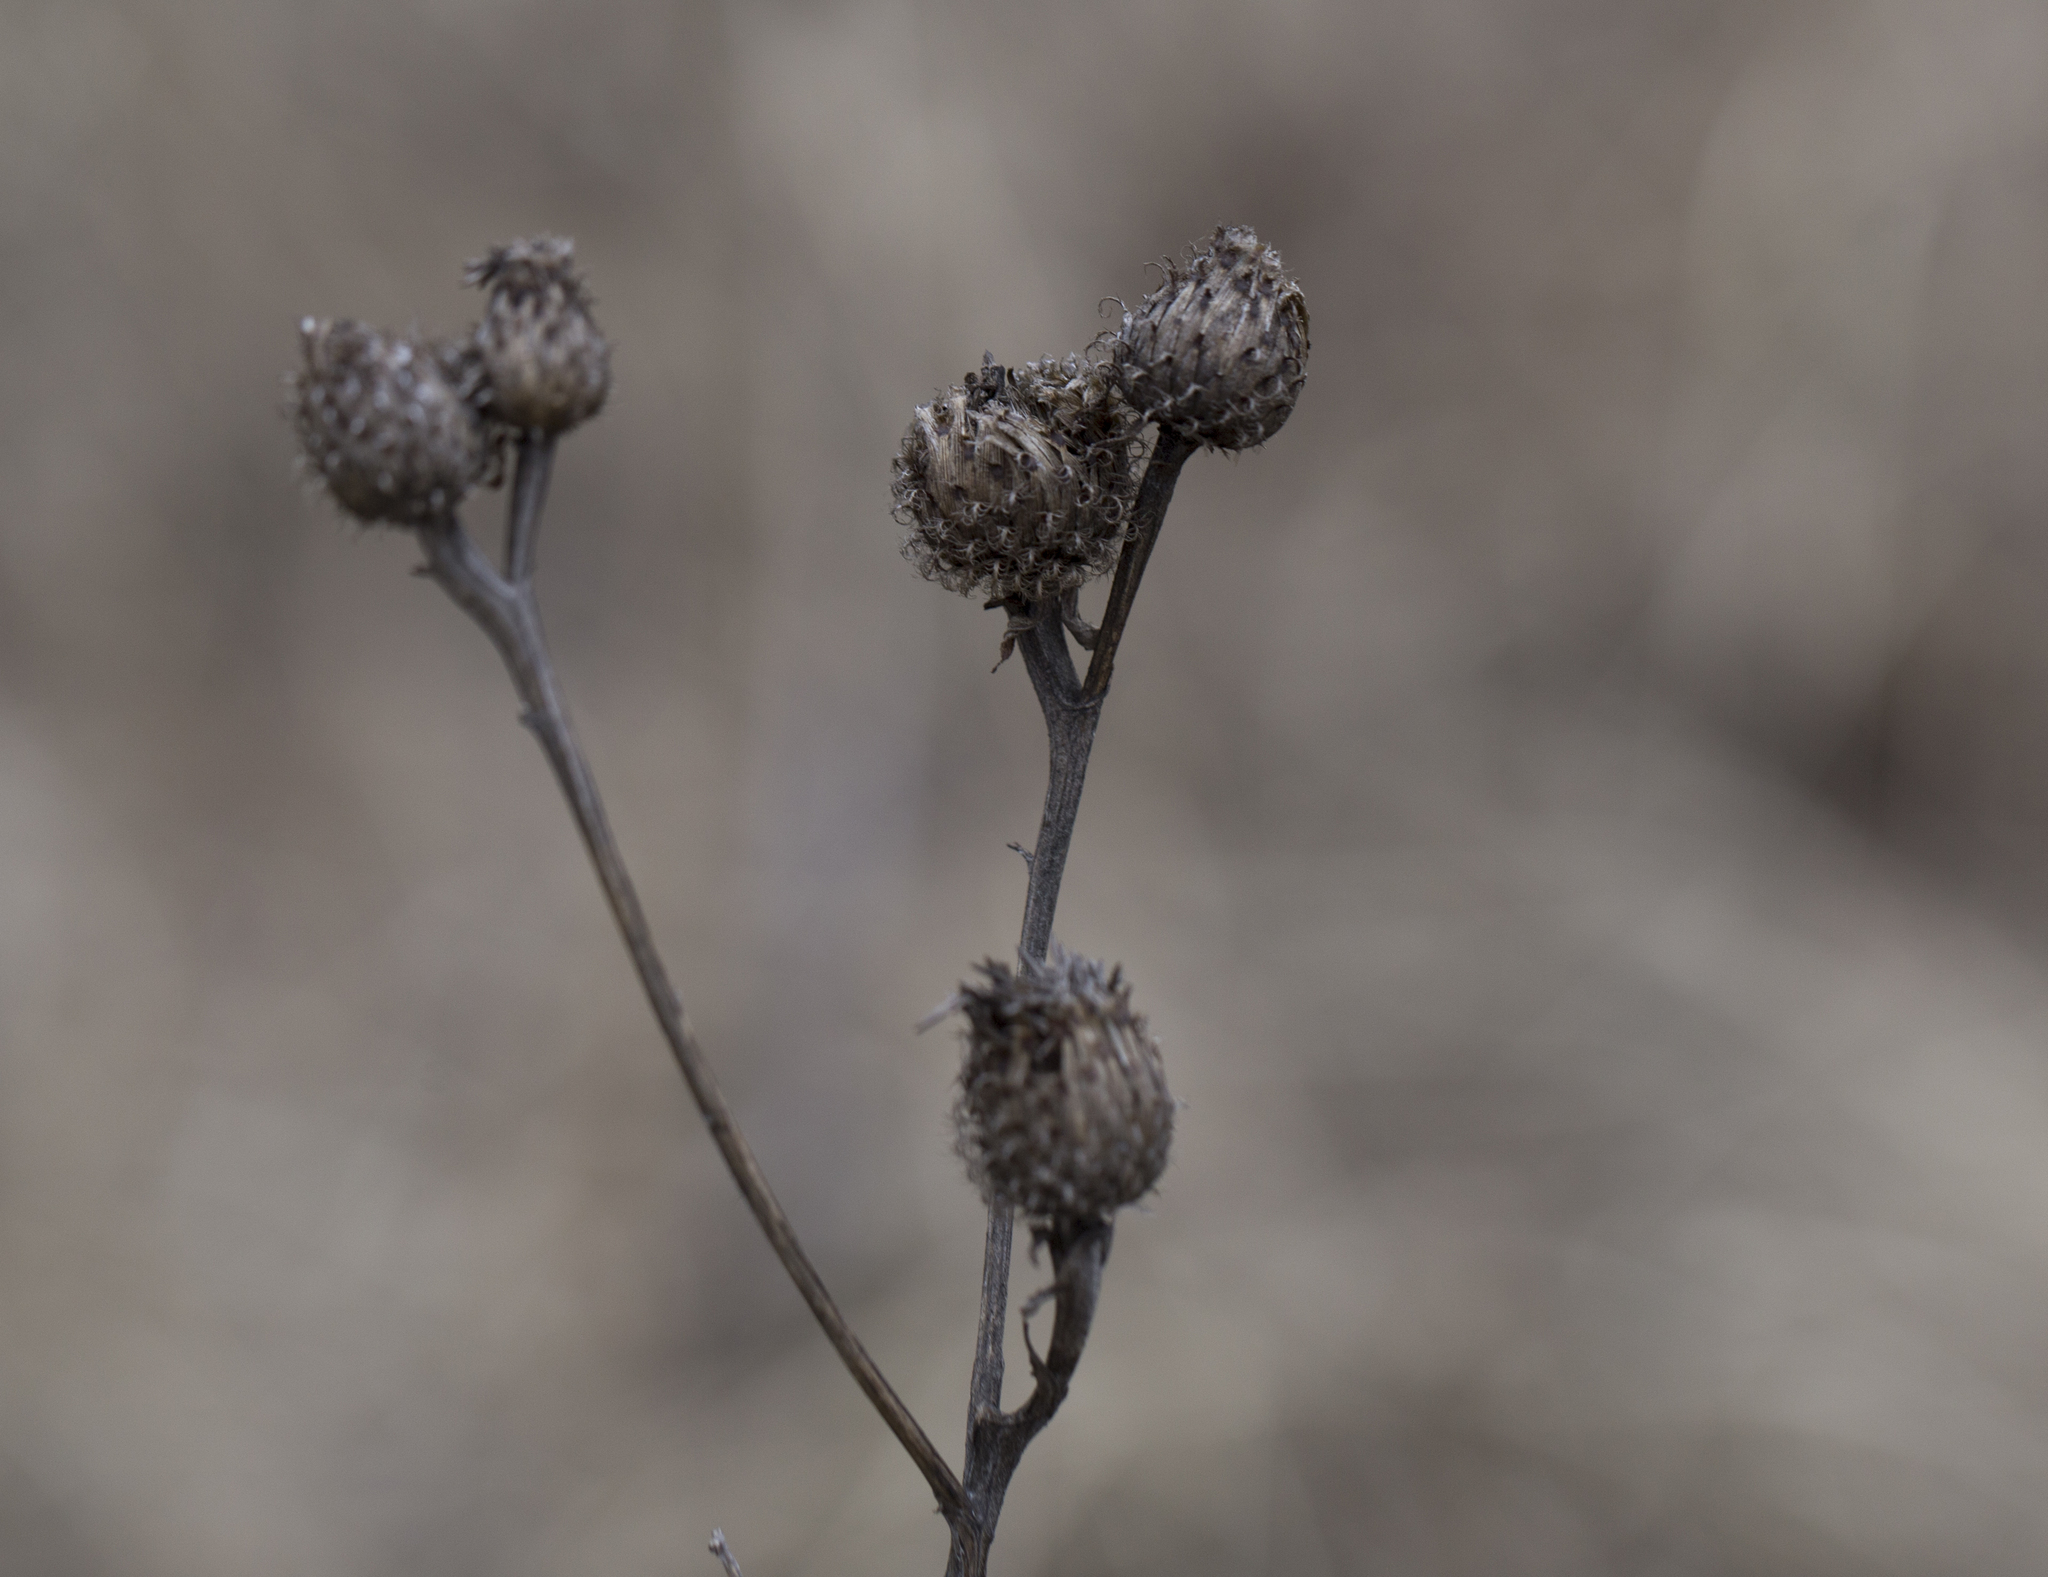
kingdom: Plantae
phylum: Tracheophyta
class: Magnoliopsida
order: Asterales
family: Asteraceae
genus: Centaurea
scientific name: Centaurea phrygia
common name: Wig knapweed
